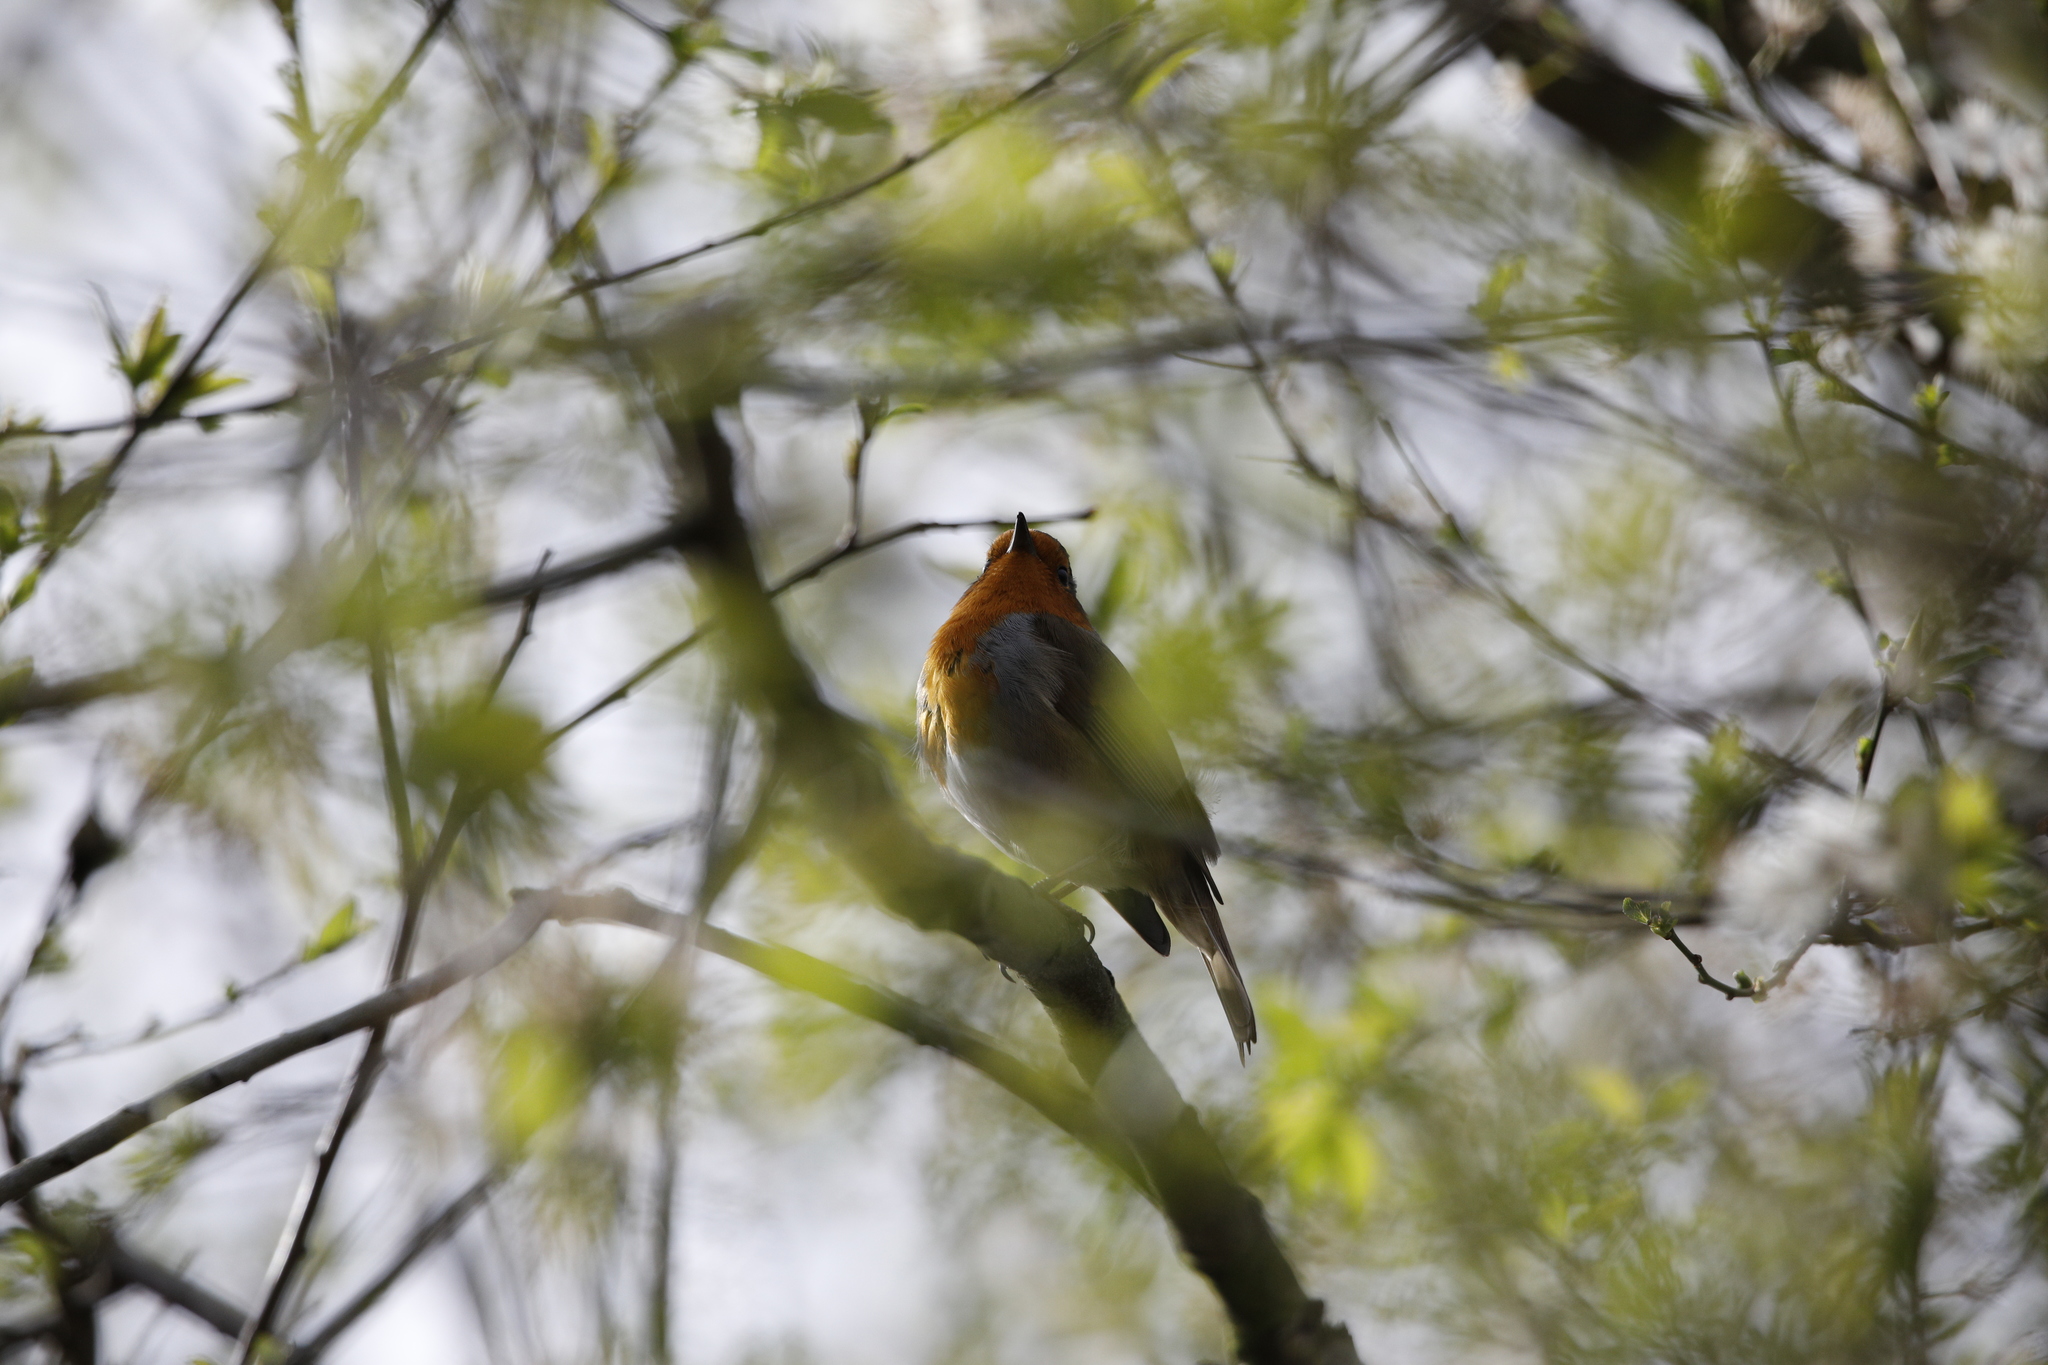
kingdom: Animalia
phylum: Chordata
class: Aves
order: Passeriformes
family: Muscicapidae
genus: Erithacus
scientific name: Erithacus rubecula
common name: European robin
